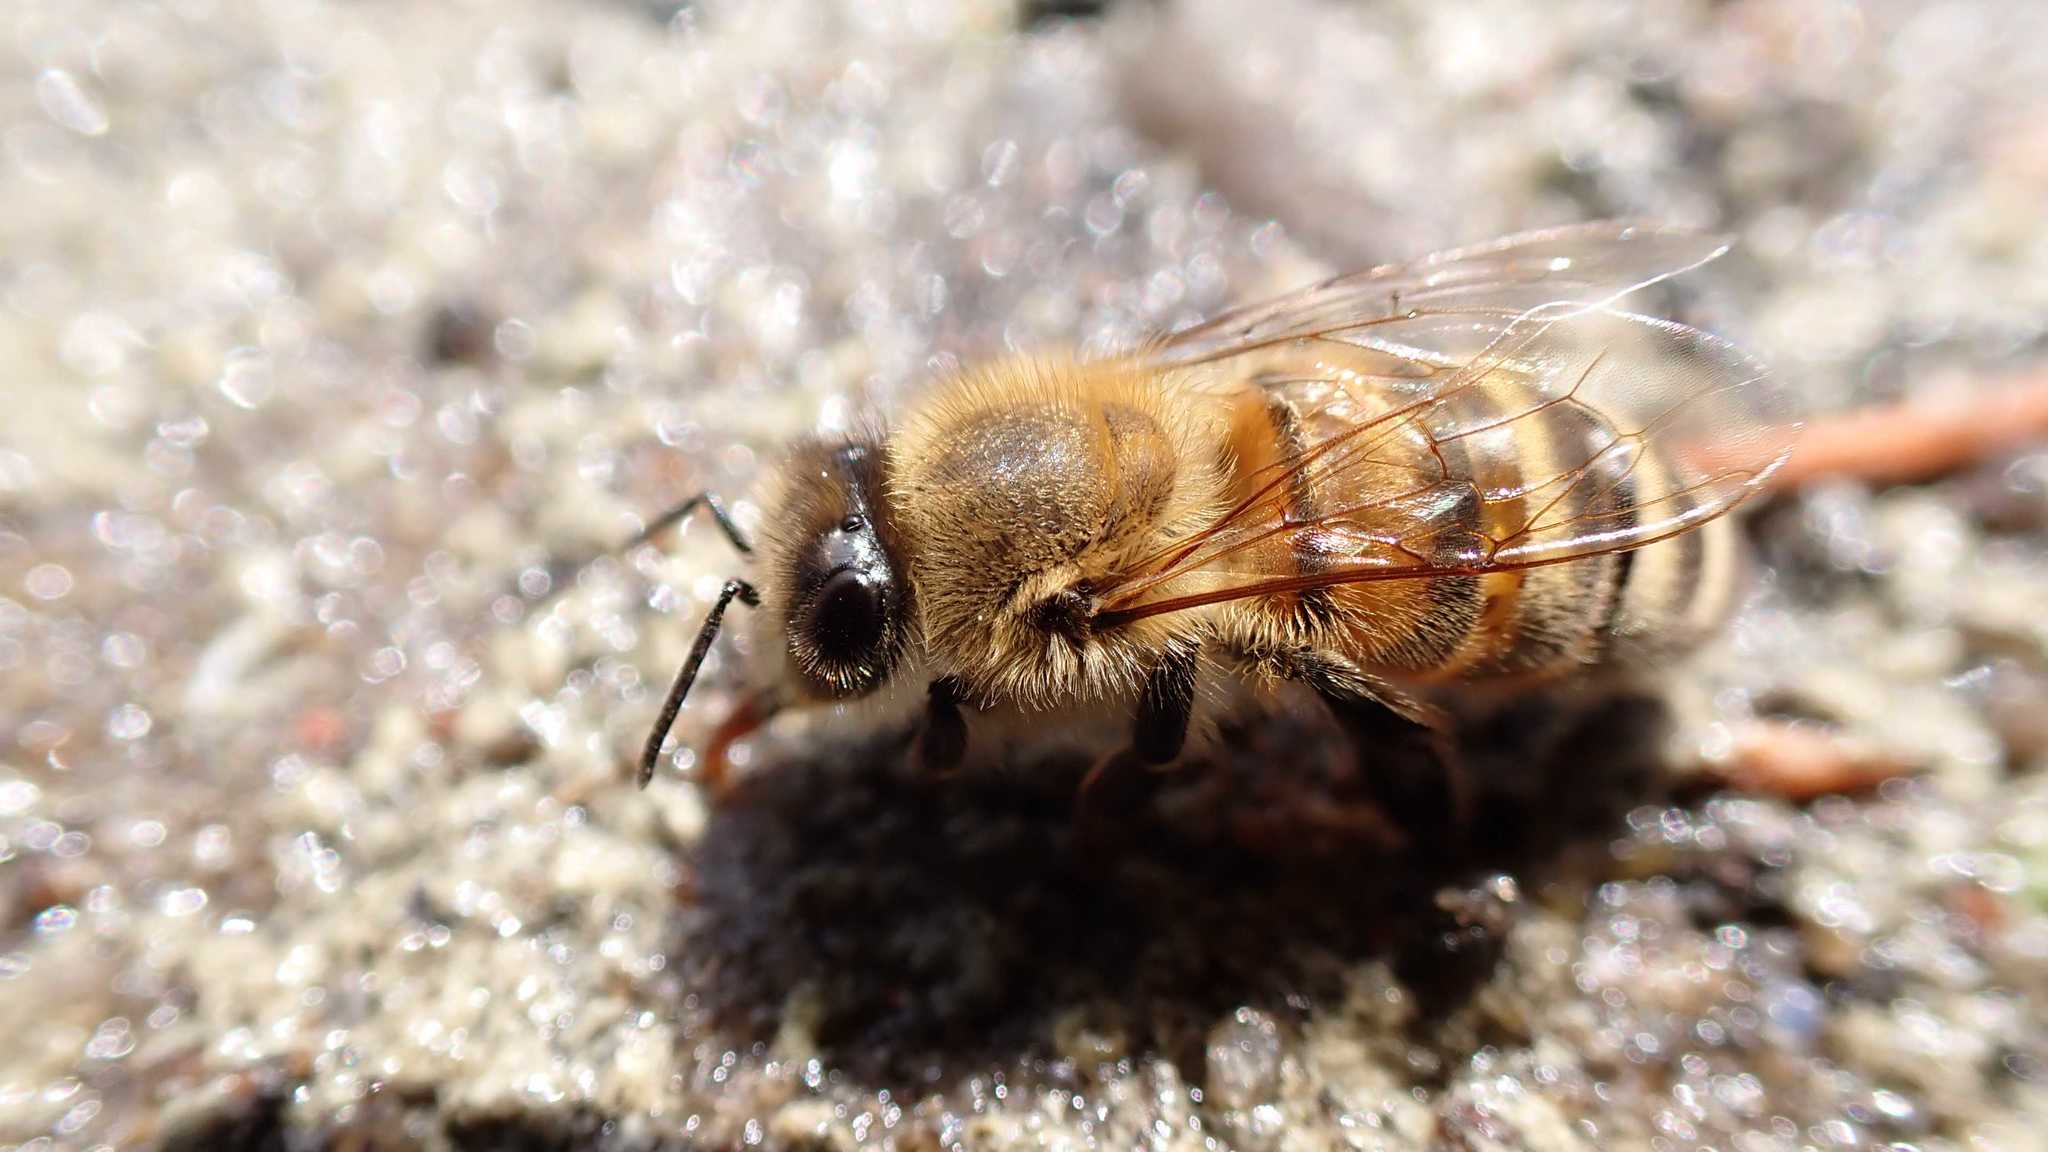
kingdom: Animalia
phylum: Arthropoda
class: Insecta
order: Hymenoptera
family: Apidae
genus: Apis
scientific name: Apis mellifera
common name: Honey bee
